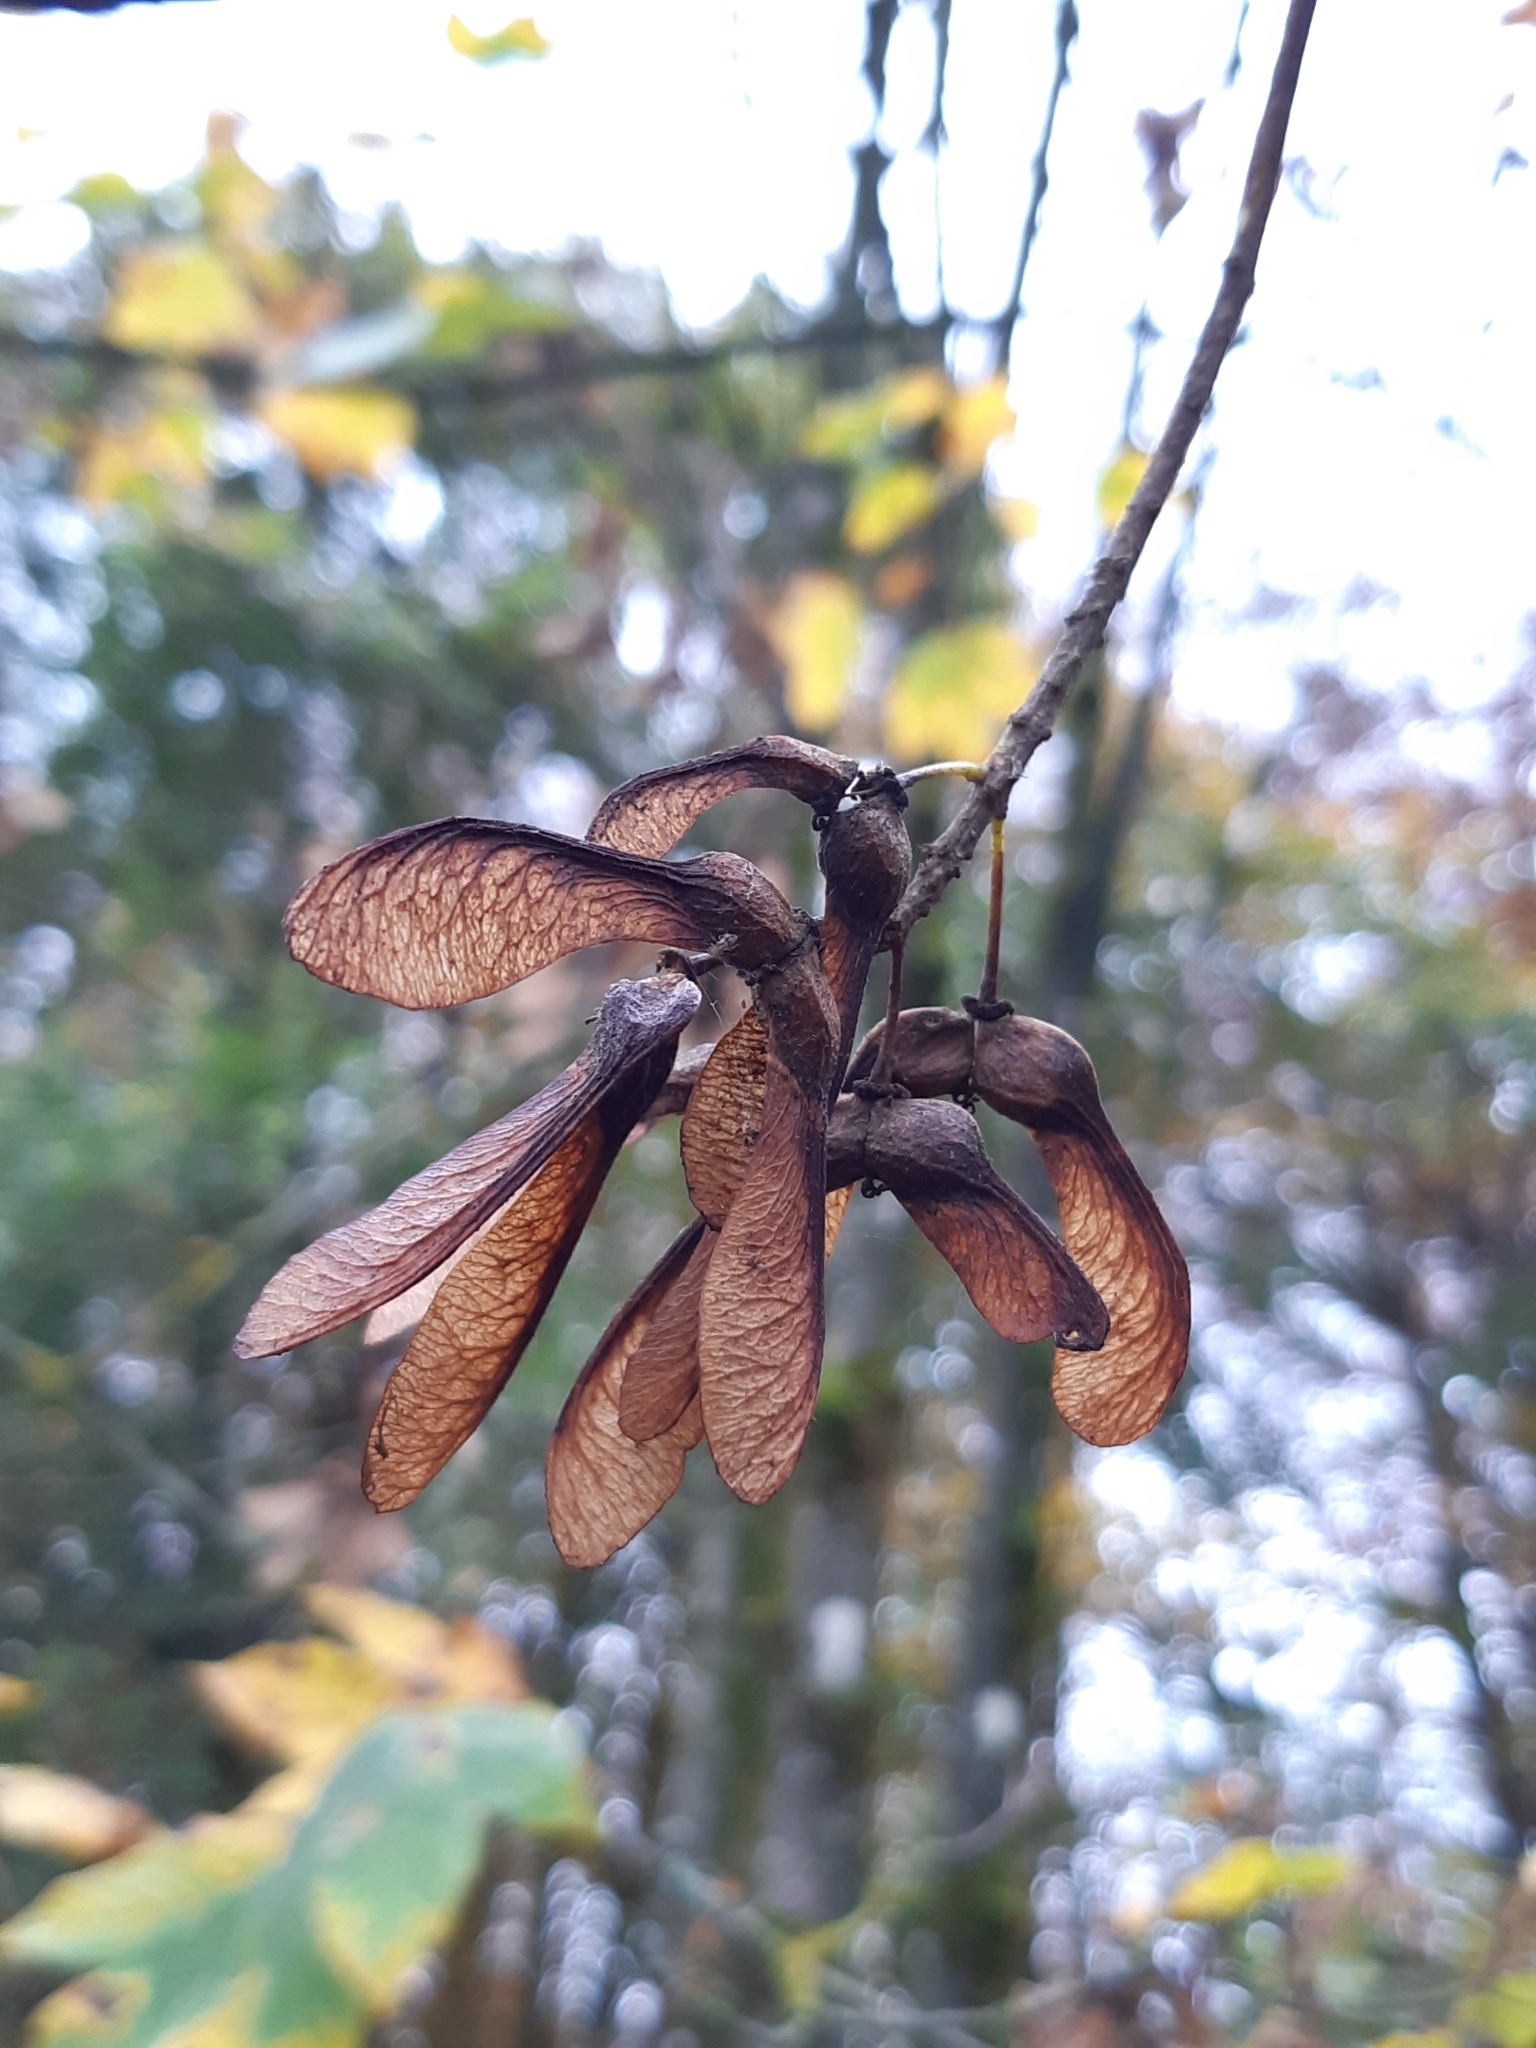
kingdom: Plantae
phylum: Tracheophyta
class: Magnoliopsida
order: Sapindales
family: Sapindaceae
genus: Acer
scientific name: Acer pseudoplatanus
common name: Sycamore
